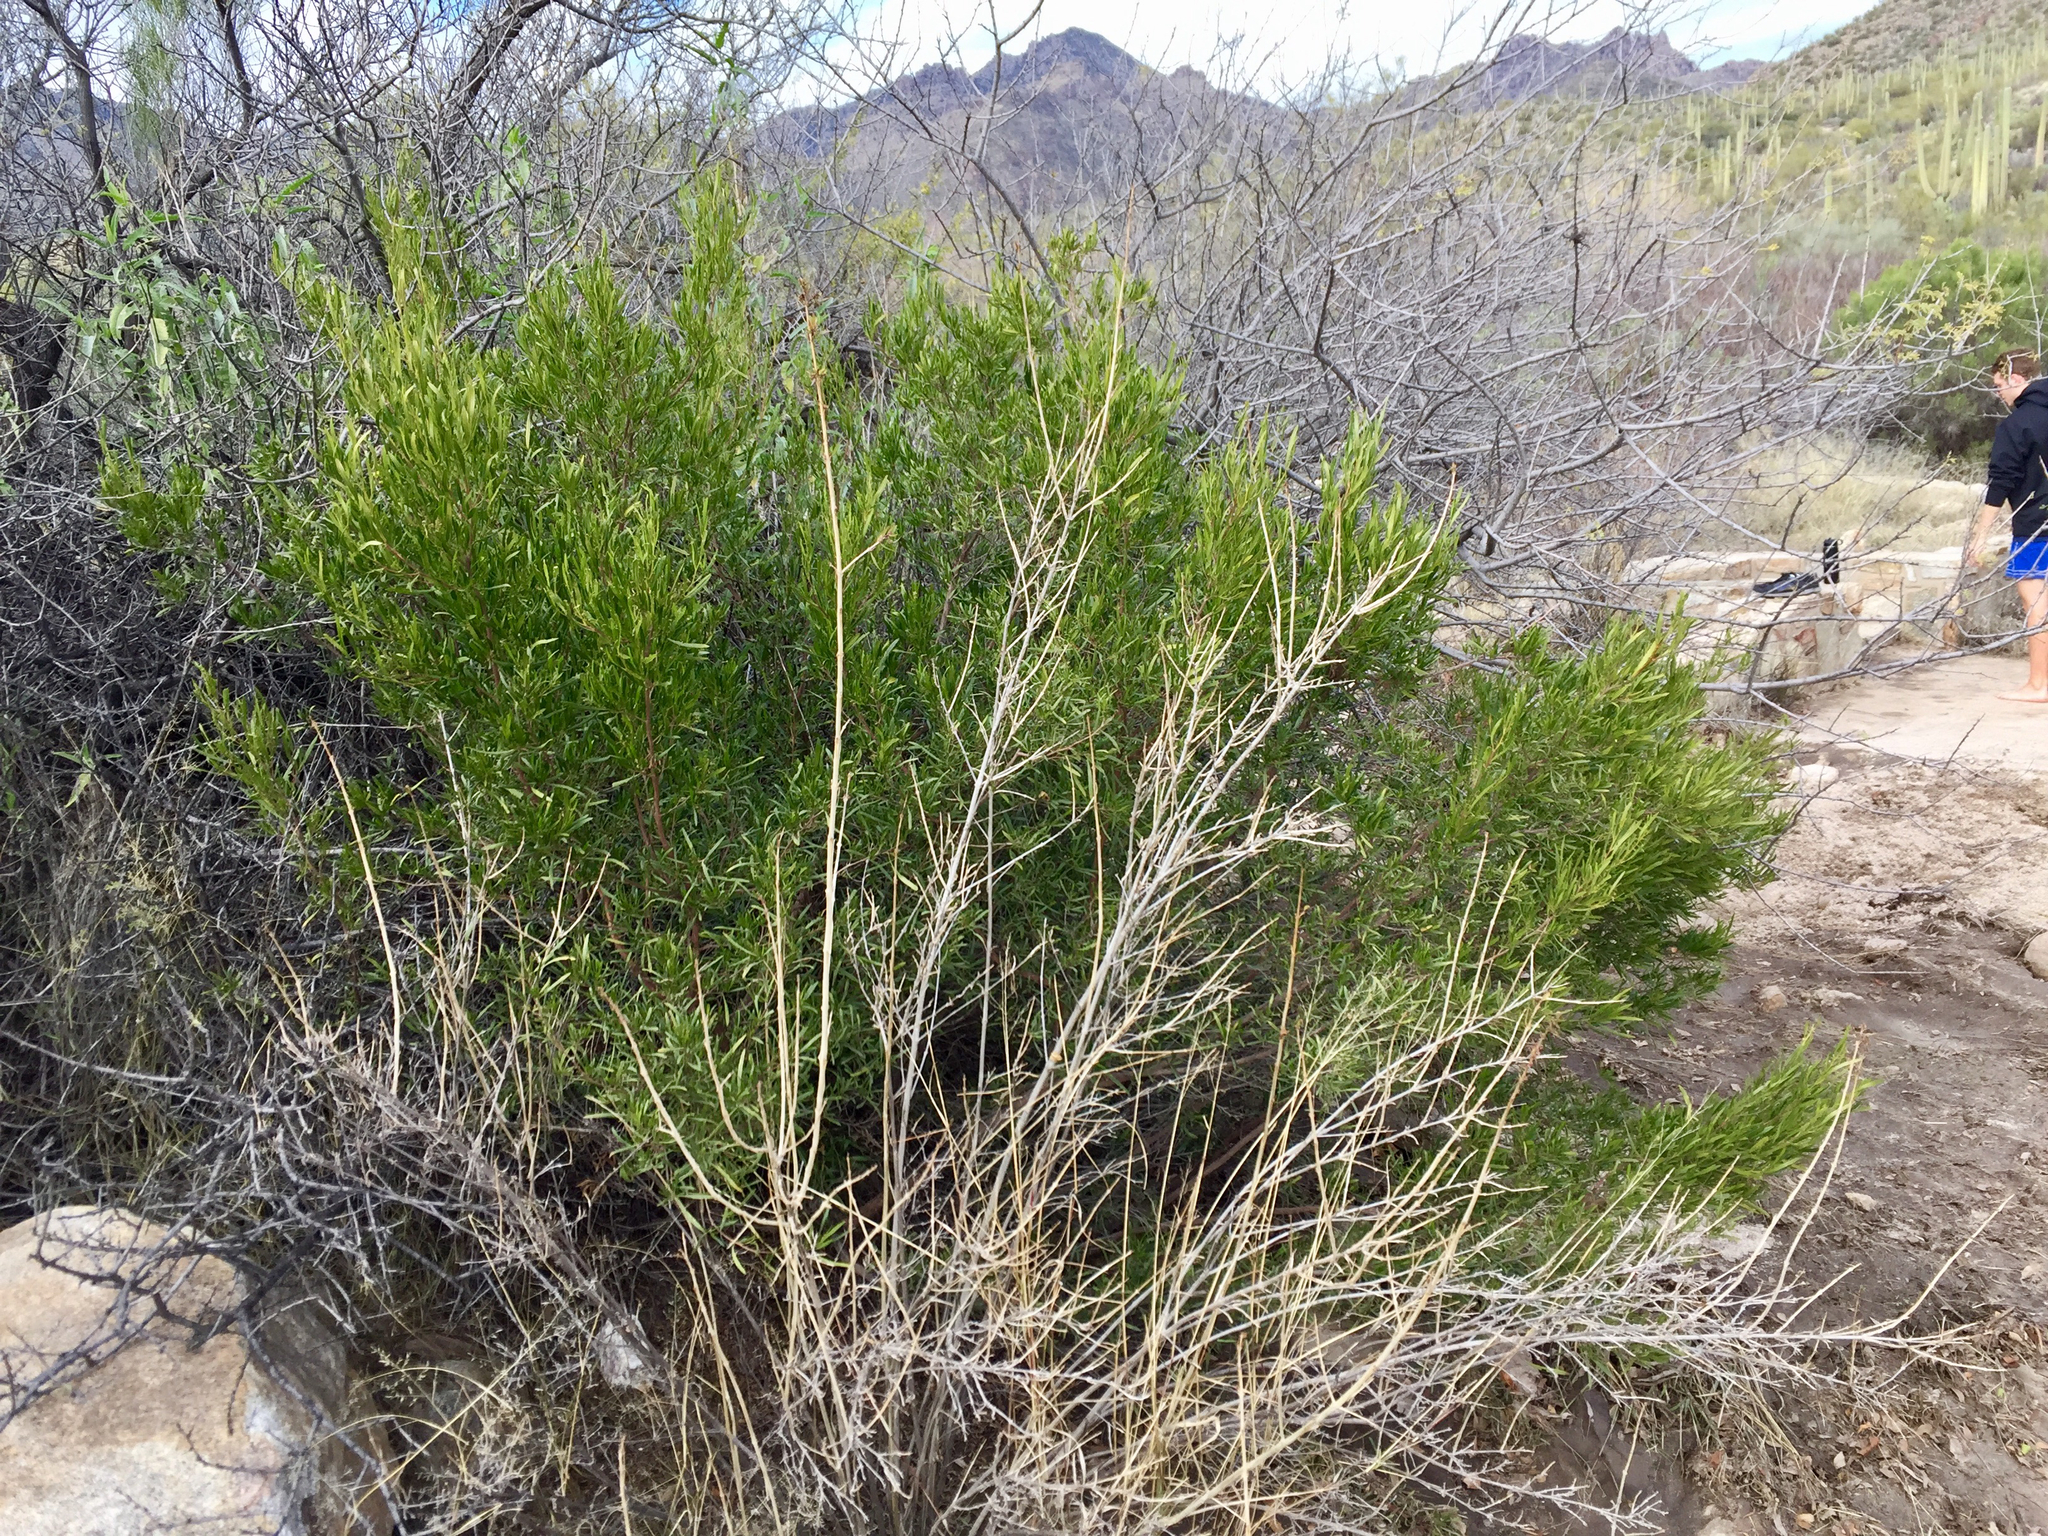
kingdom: Plantae
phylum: Tracheophyta
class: Magnoliopsida
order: Sapindales
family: Sapindaceae
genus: Dodonaea
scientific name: Dodonaea viscosa
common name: Hopbush
